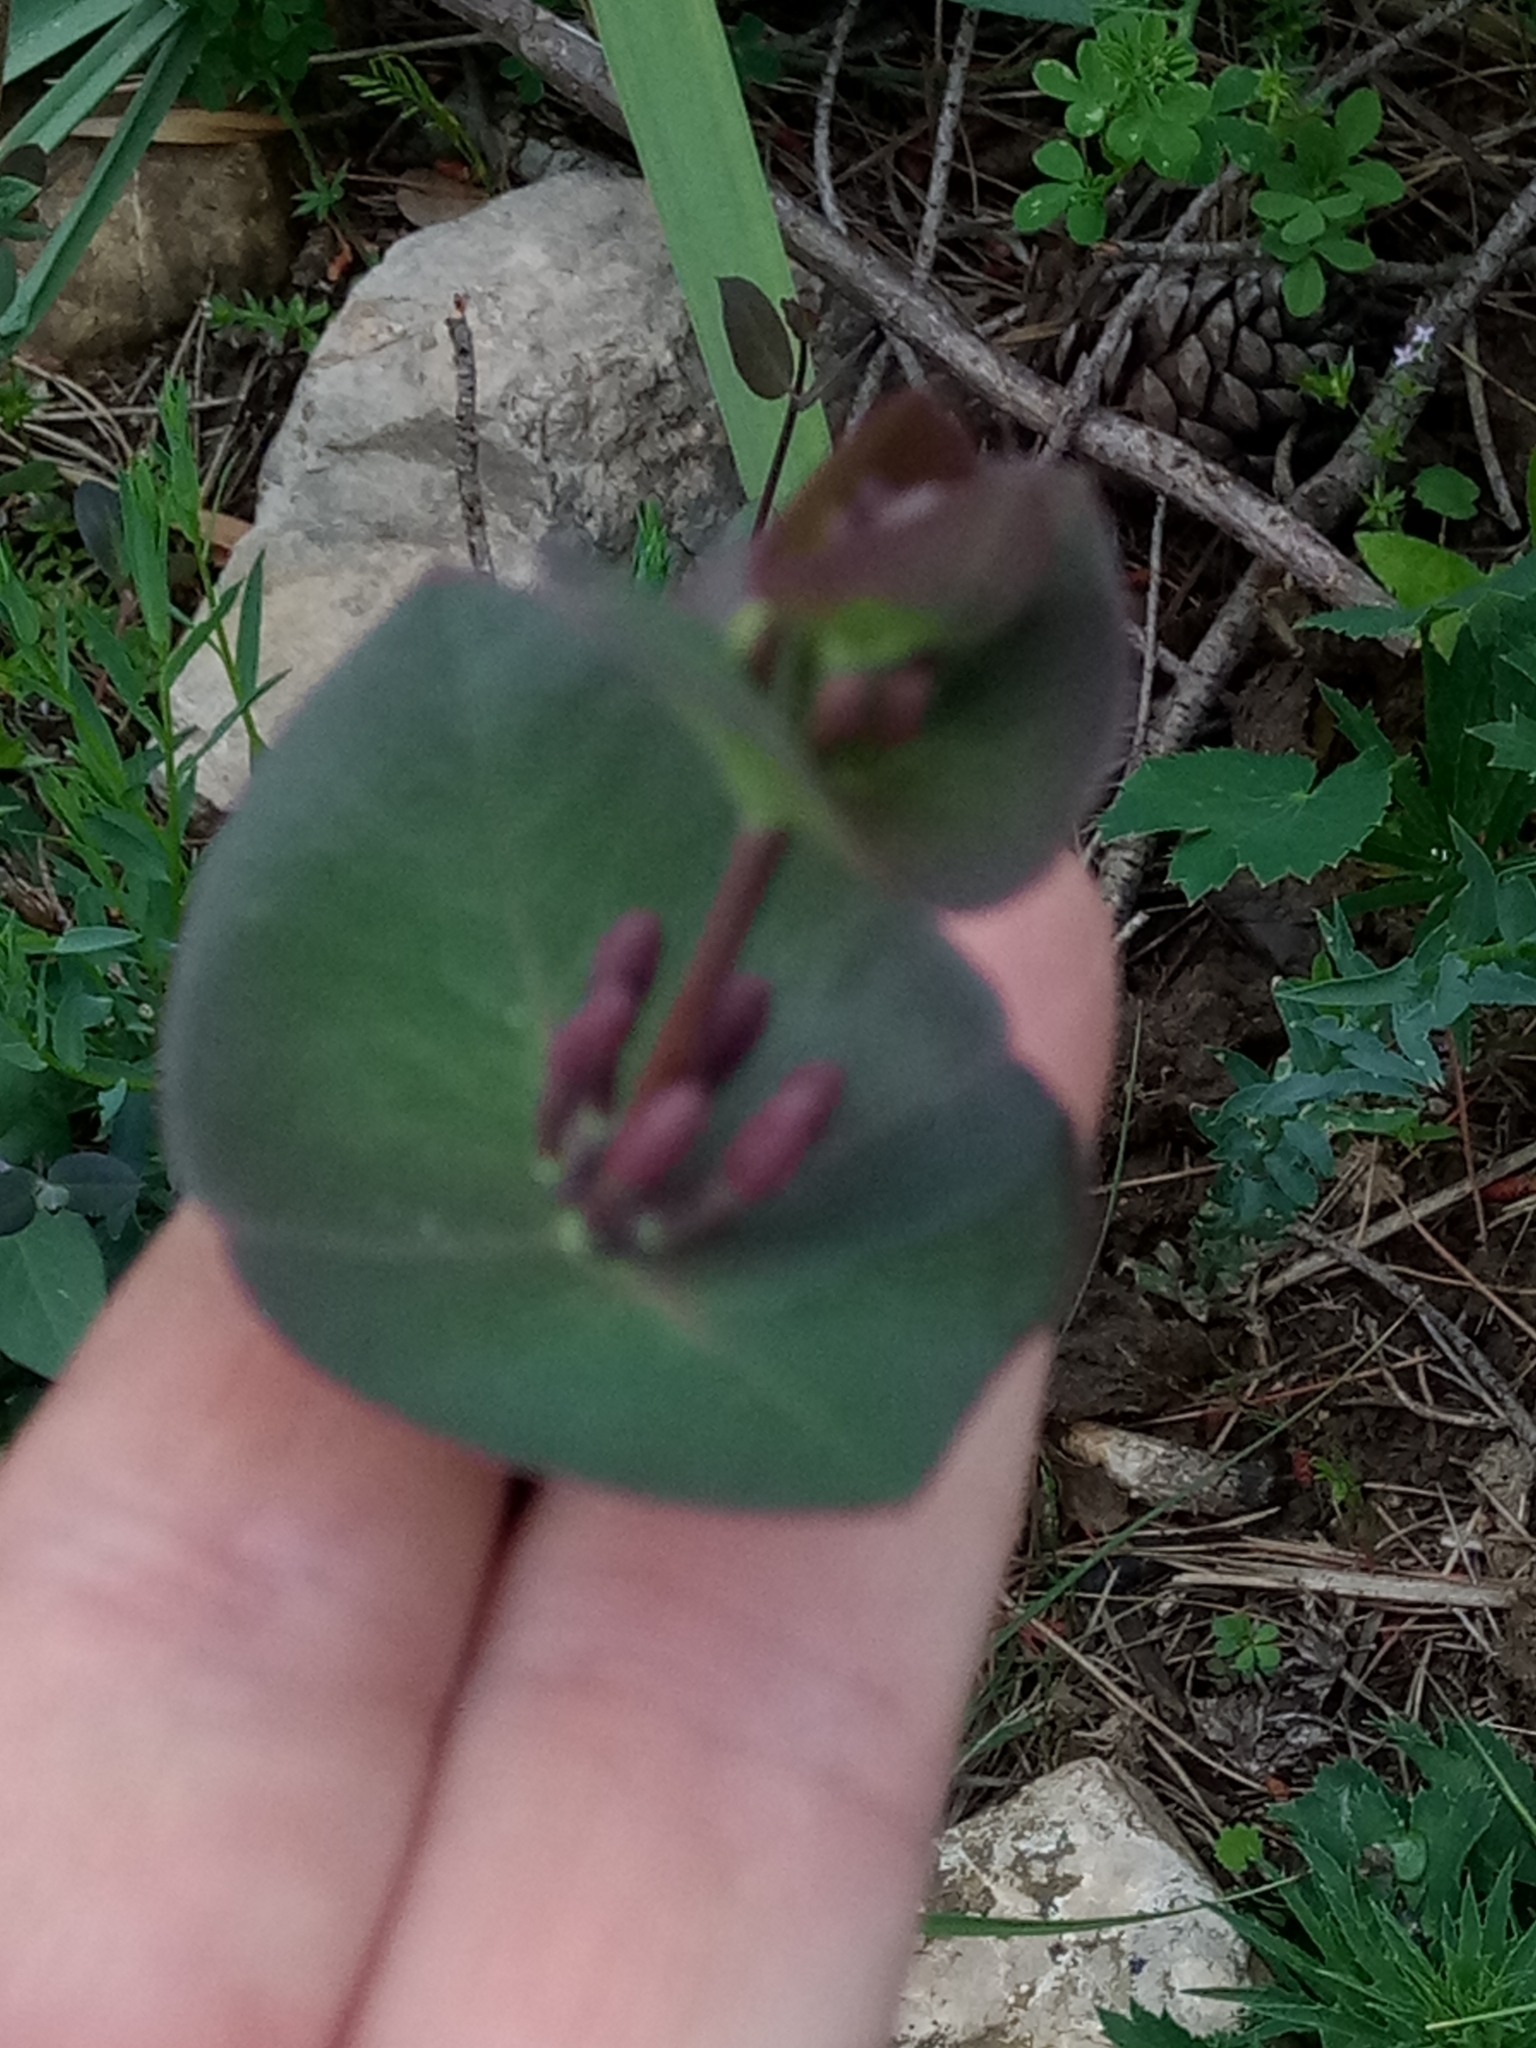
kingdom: Plantae
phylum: Tracheophyta
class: Magnoliopsida
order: Dipsacales
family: Caprifoliaceae
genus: Lonicera
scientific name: Lonicera implexa
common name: Minorca honeysuckle
